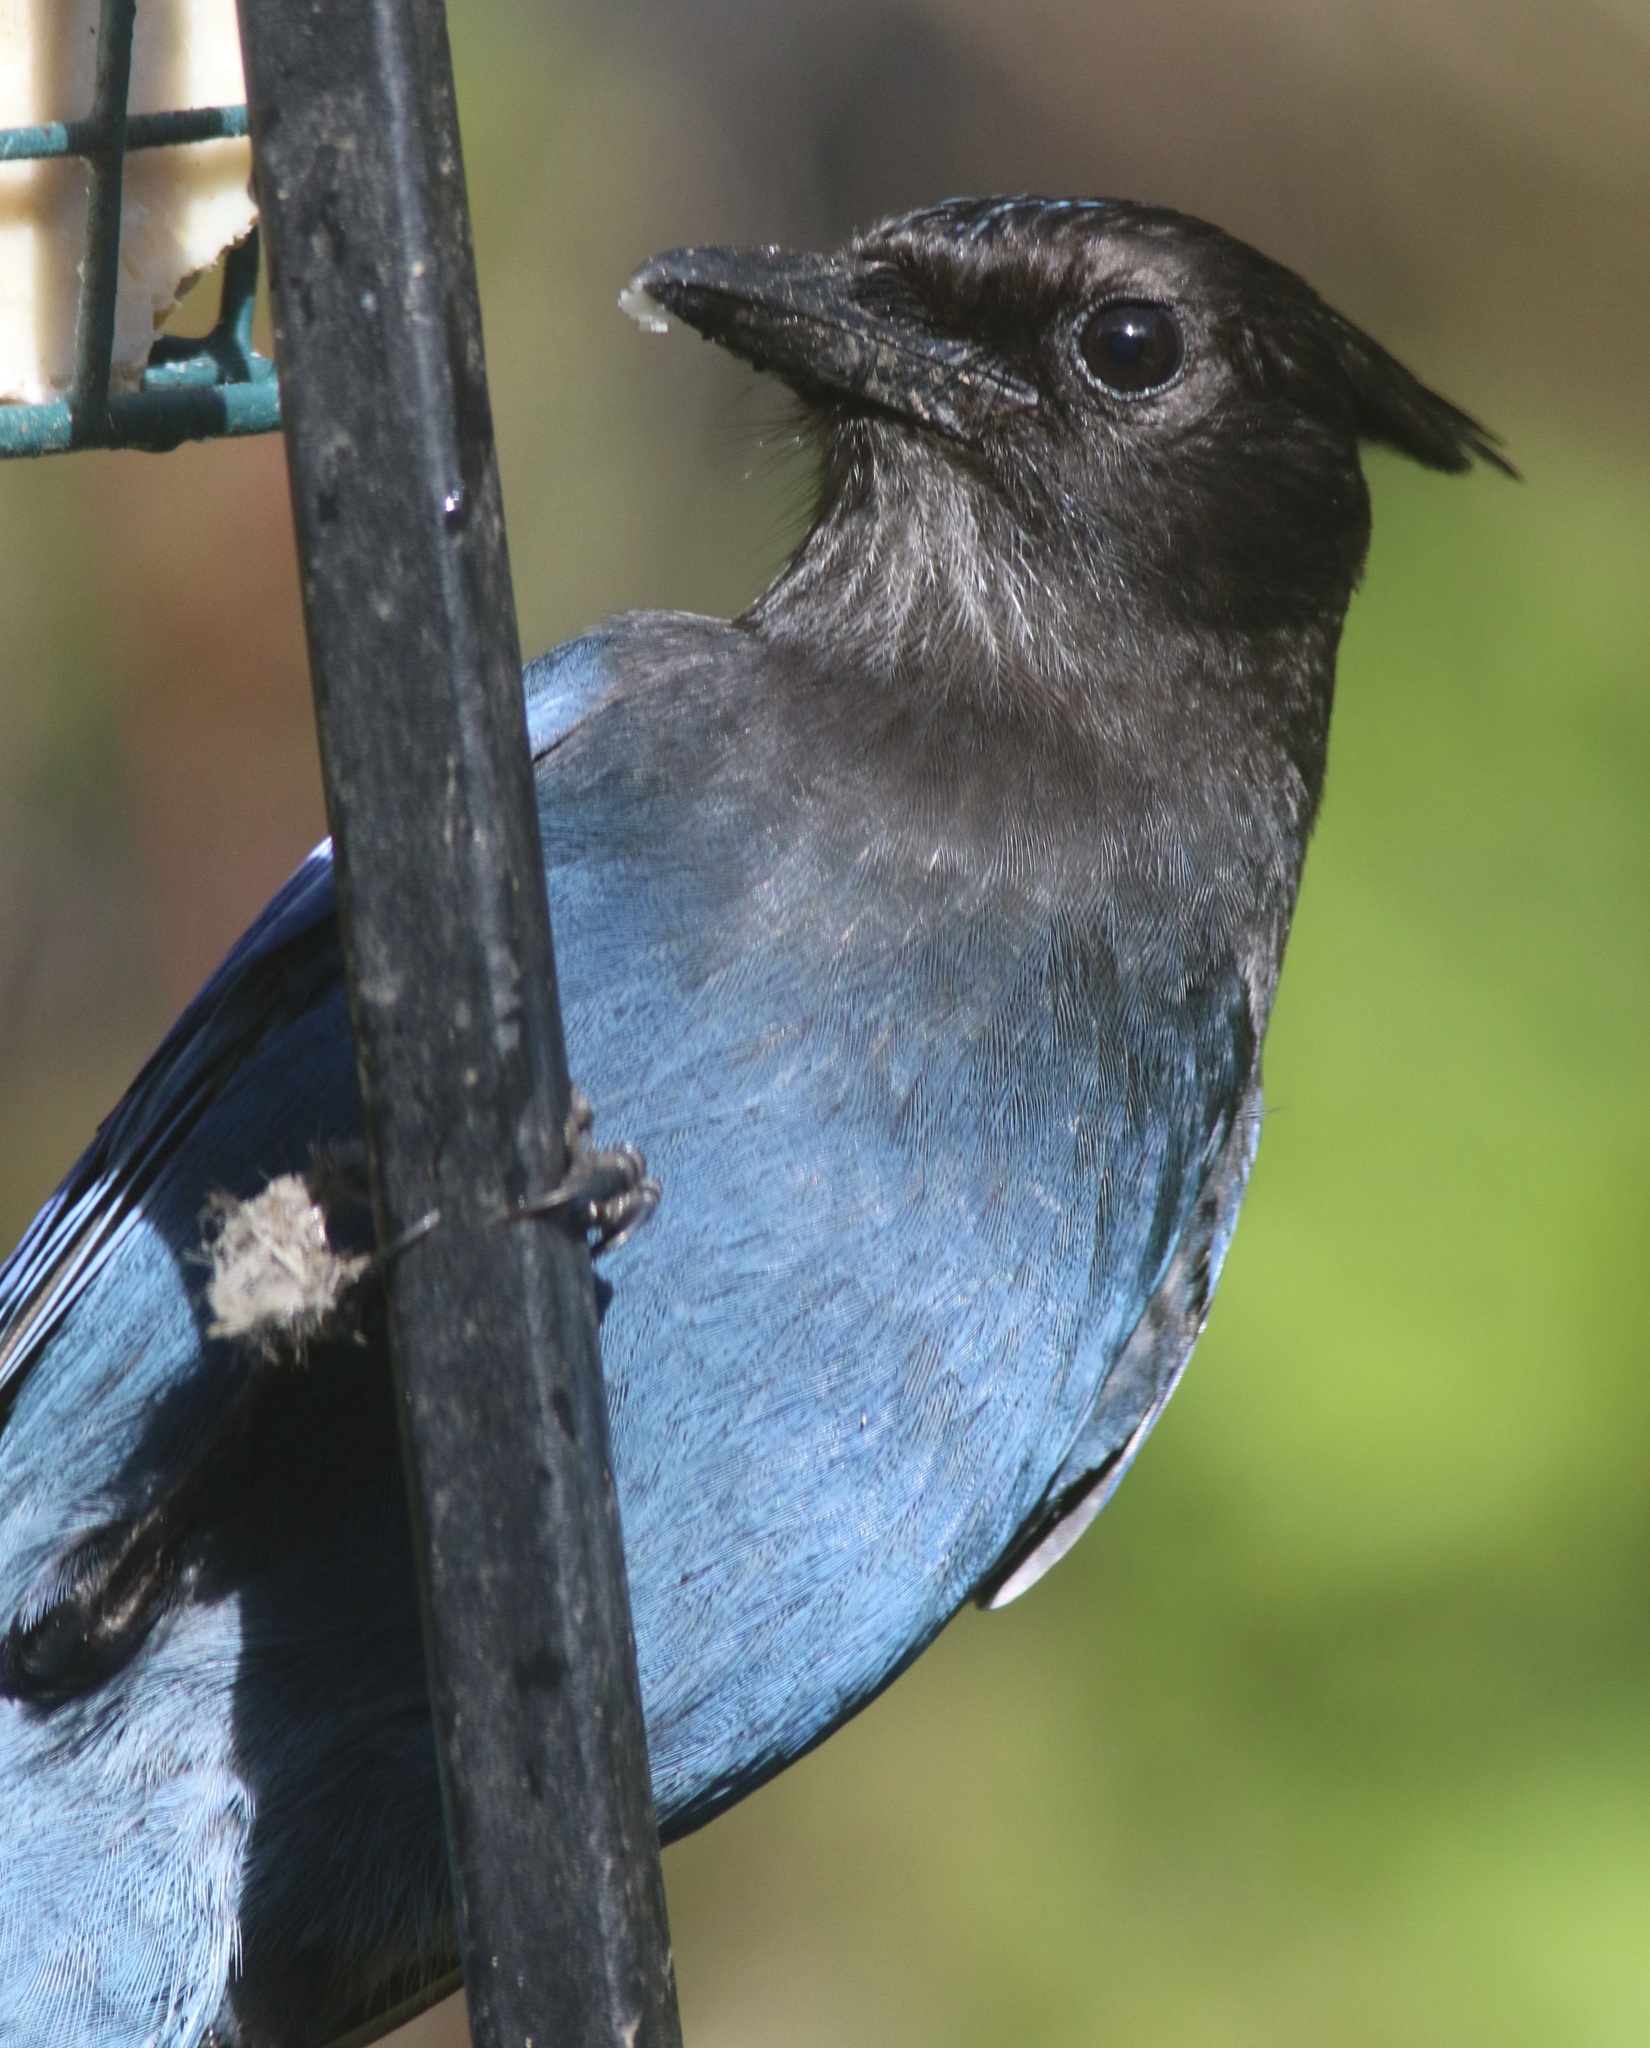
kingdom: Animalia
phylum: Chordata
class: Aves
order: Passeriformes
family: Corvidae
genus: Cyanocitta
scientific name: Cyanocitta stelleri
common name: Steller's jay
